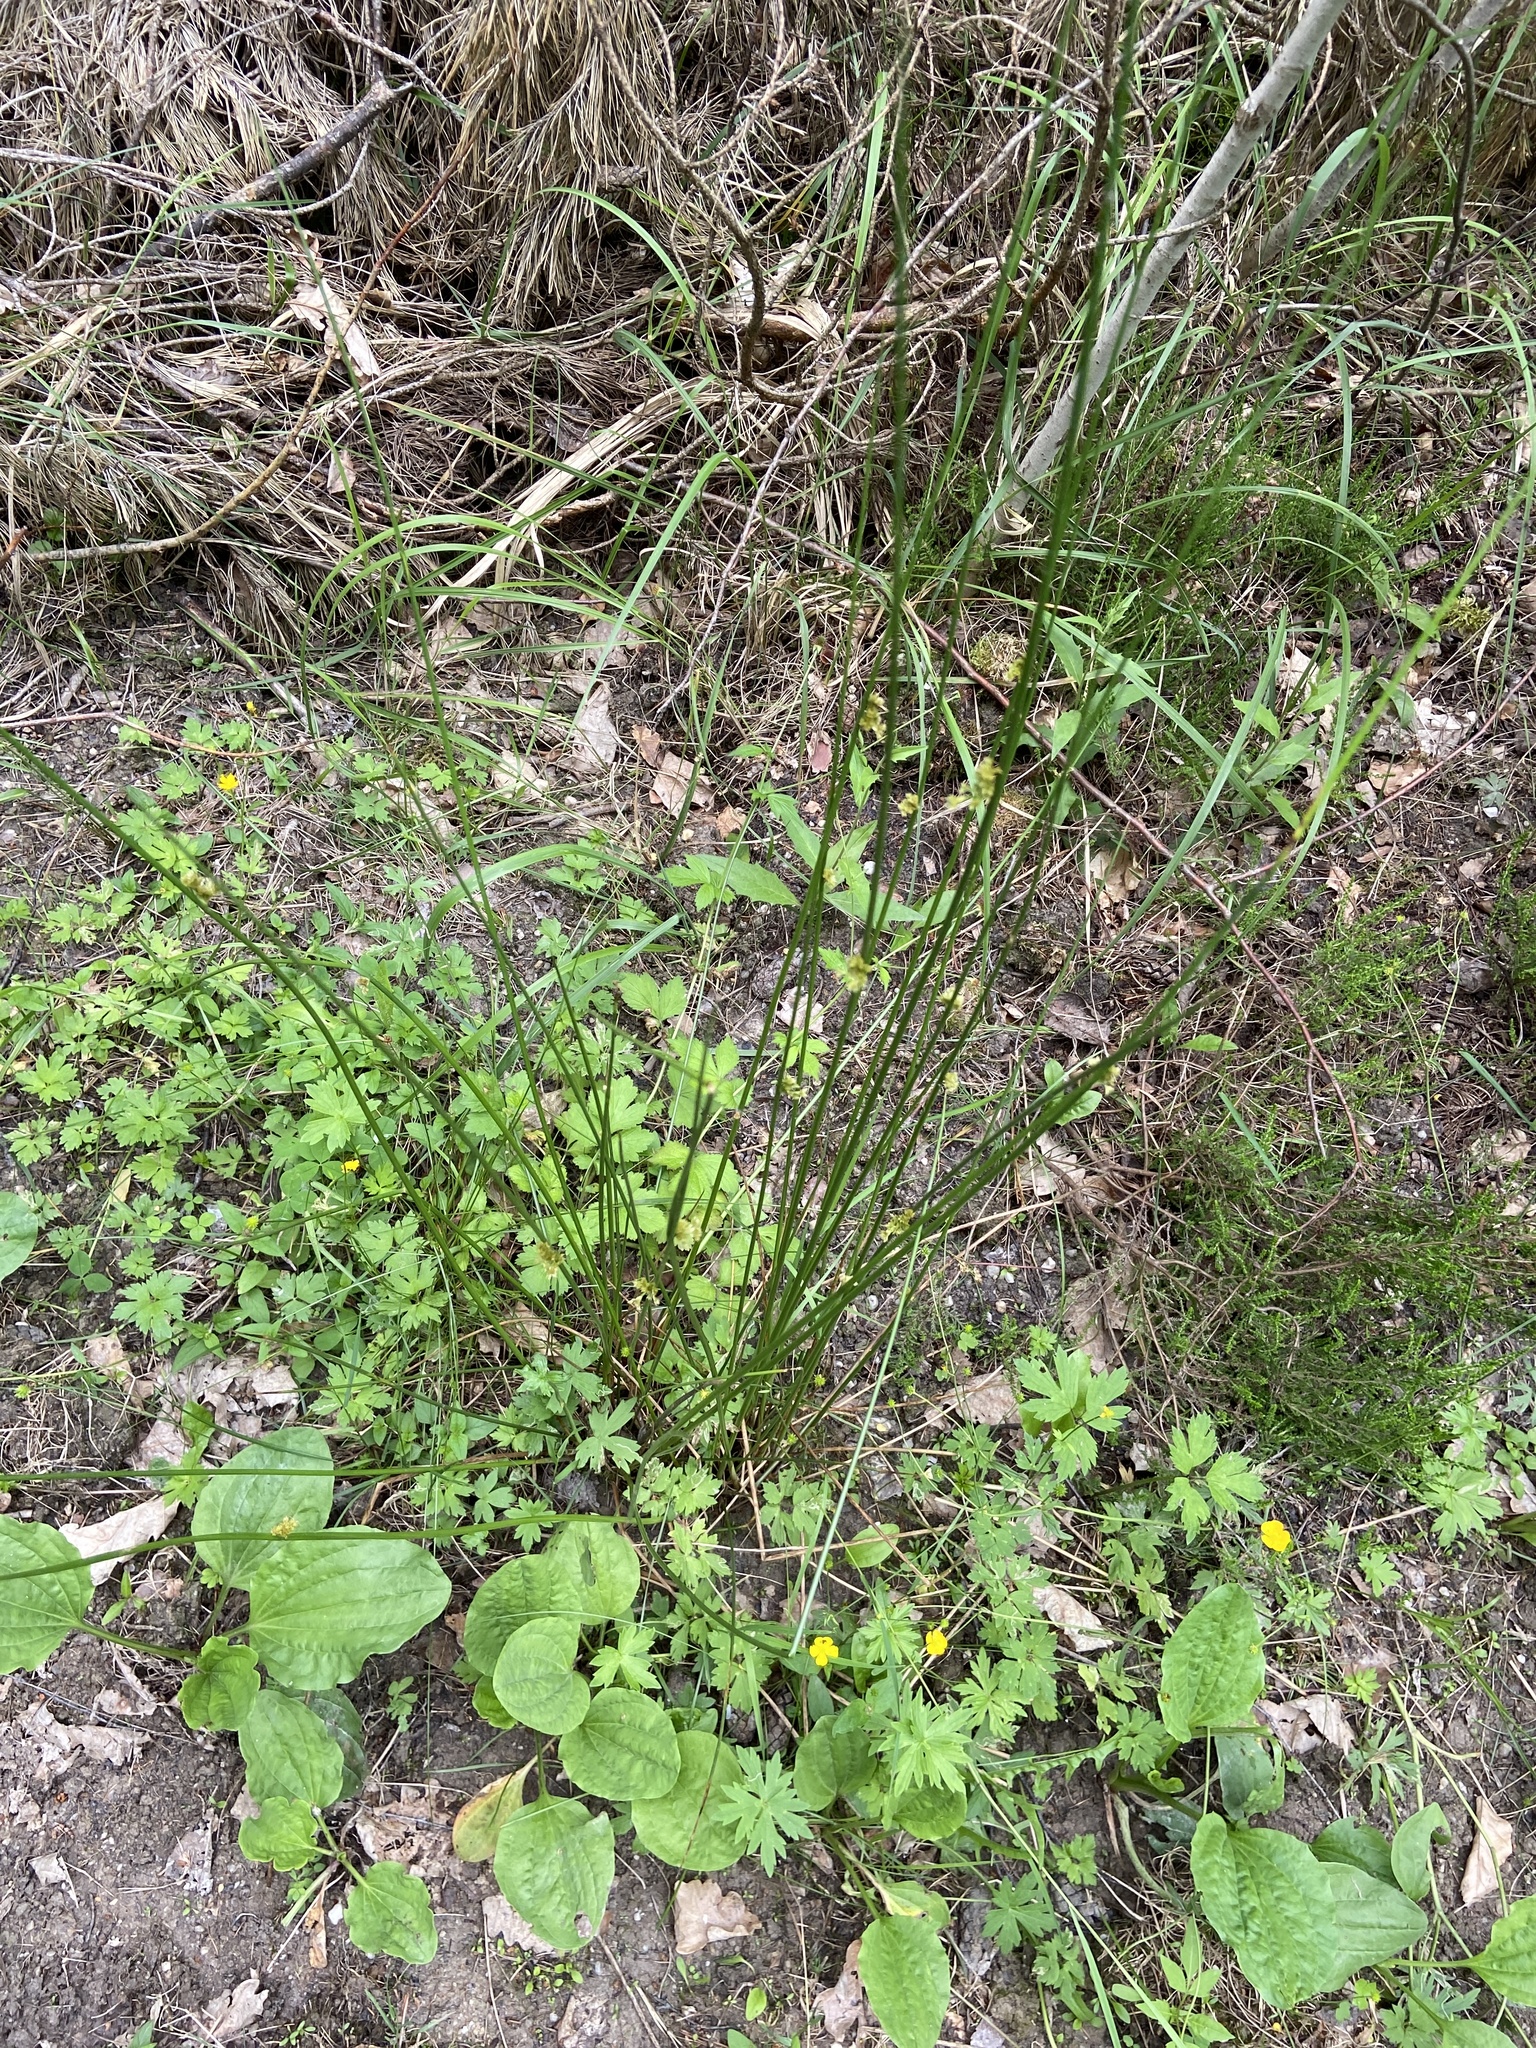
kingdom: Plantae
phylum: Tracheophyta
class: Liliopsida
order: Poales
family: Juncaceae
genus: Juncus
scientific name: Juncus effusus
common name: Soft rush
